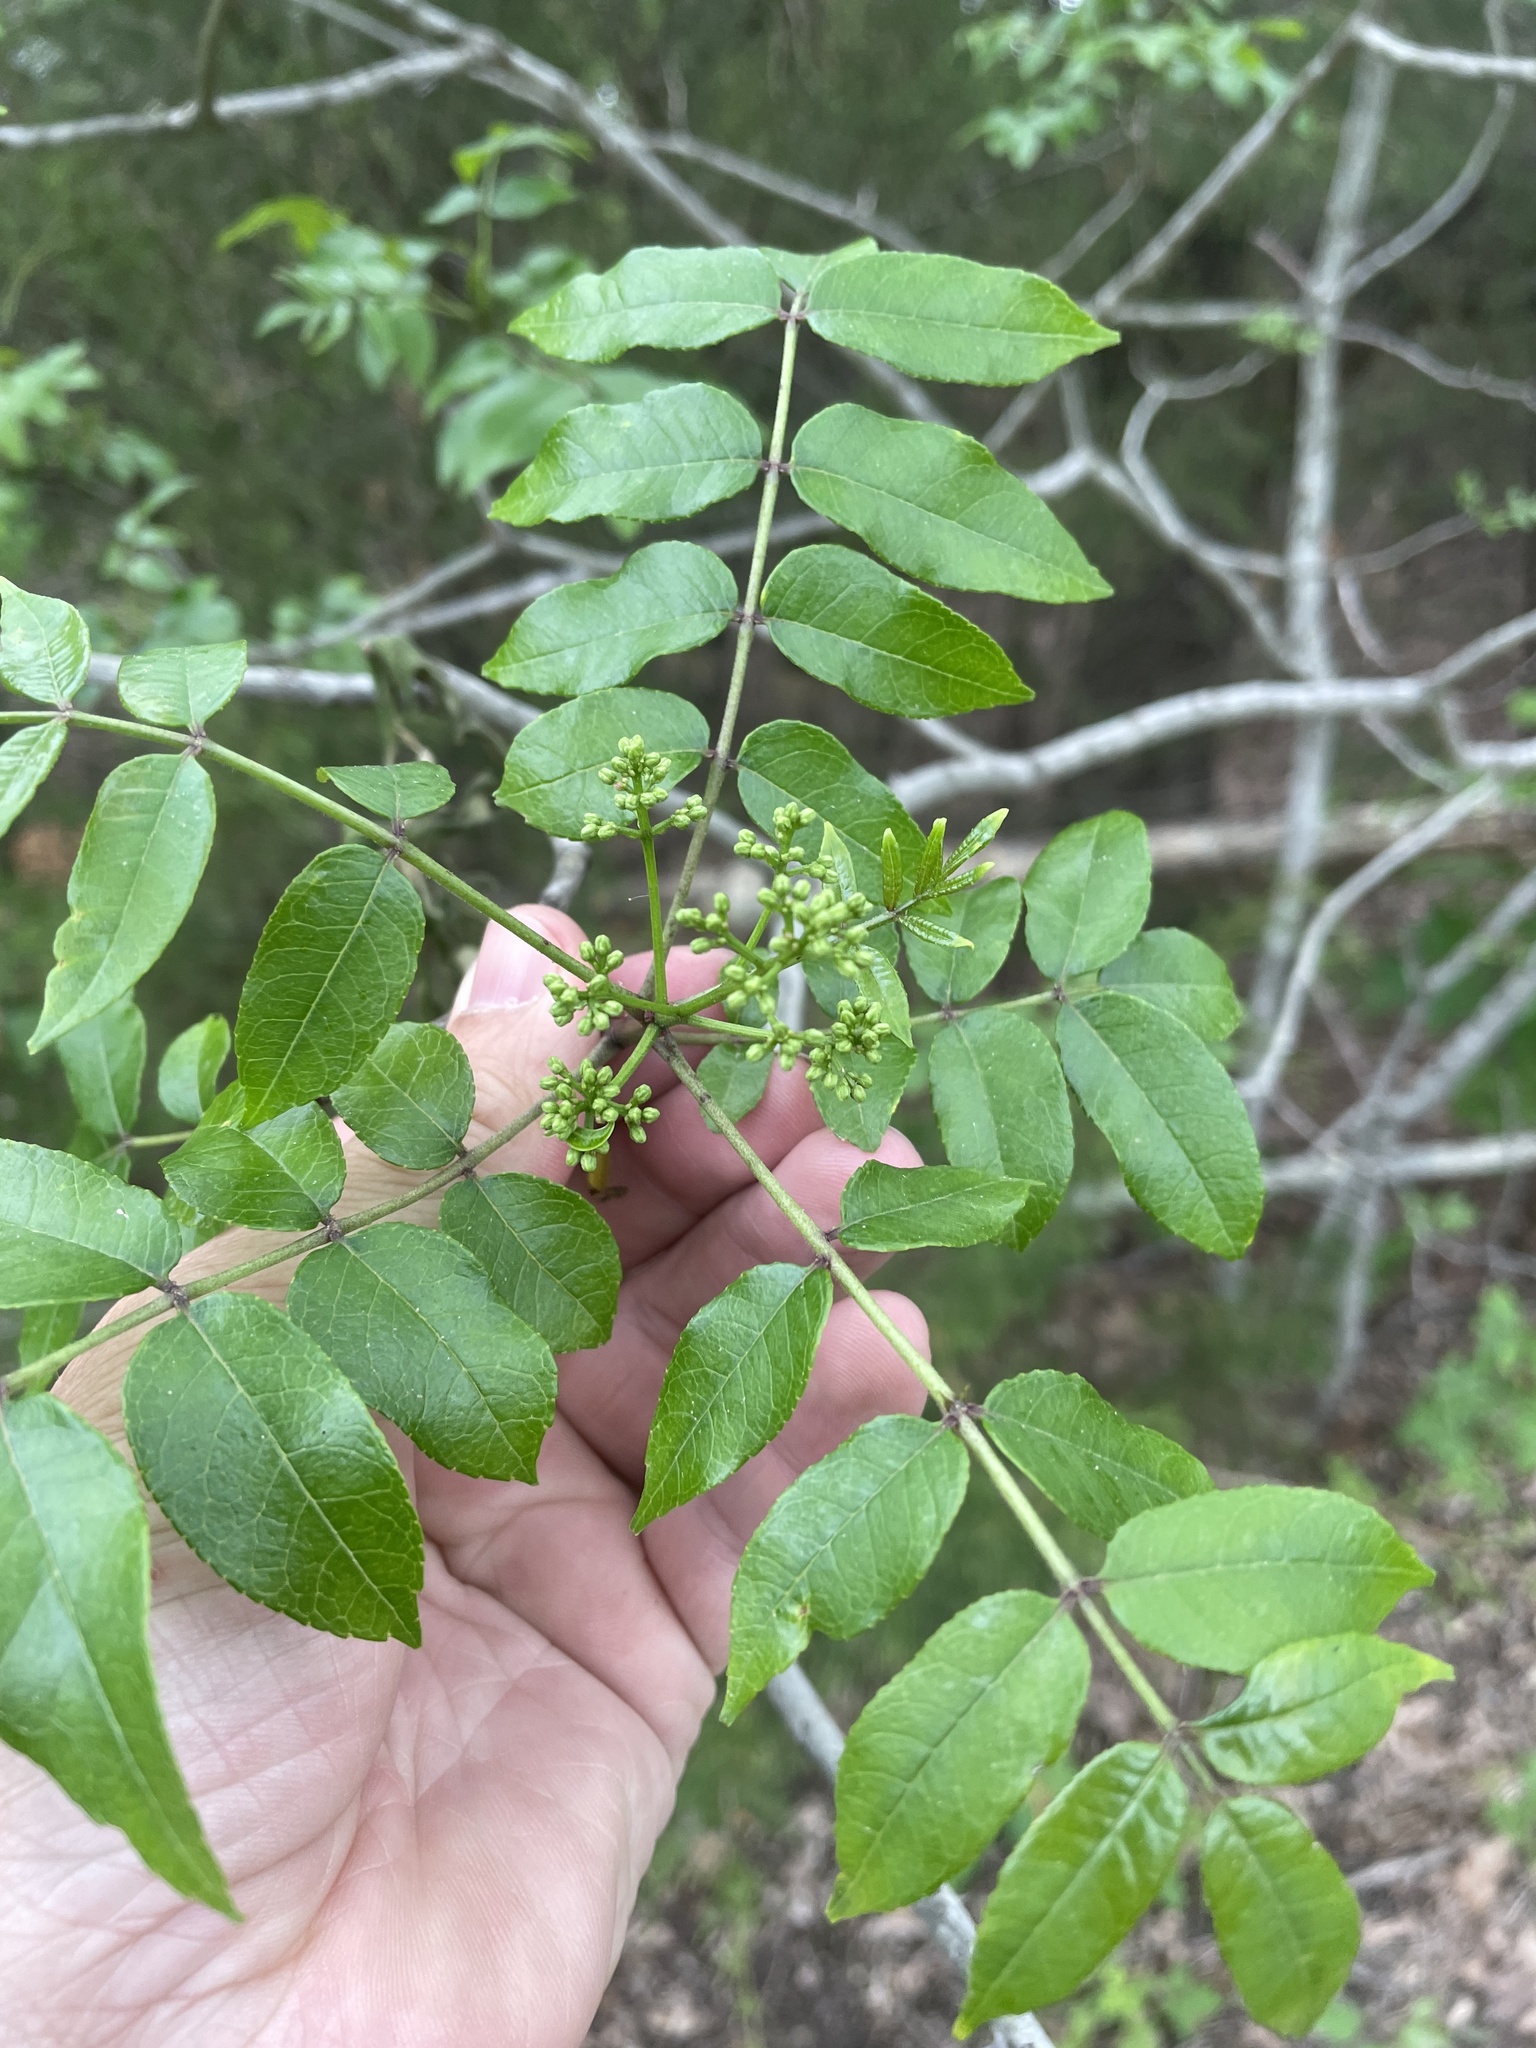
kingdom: Plantae
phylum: Tracheophyta
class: Magnoliopsida
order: Sapindales
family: Rutaceae
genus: Zanthoxylum
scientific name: Zanthoxylum clava-herculis
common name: Hercules'-club
